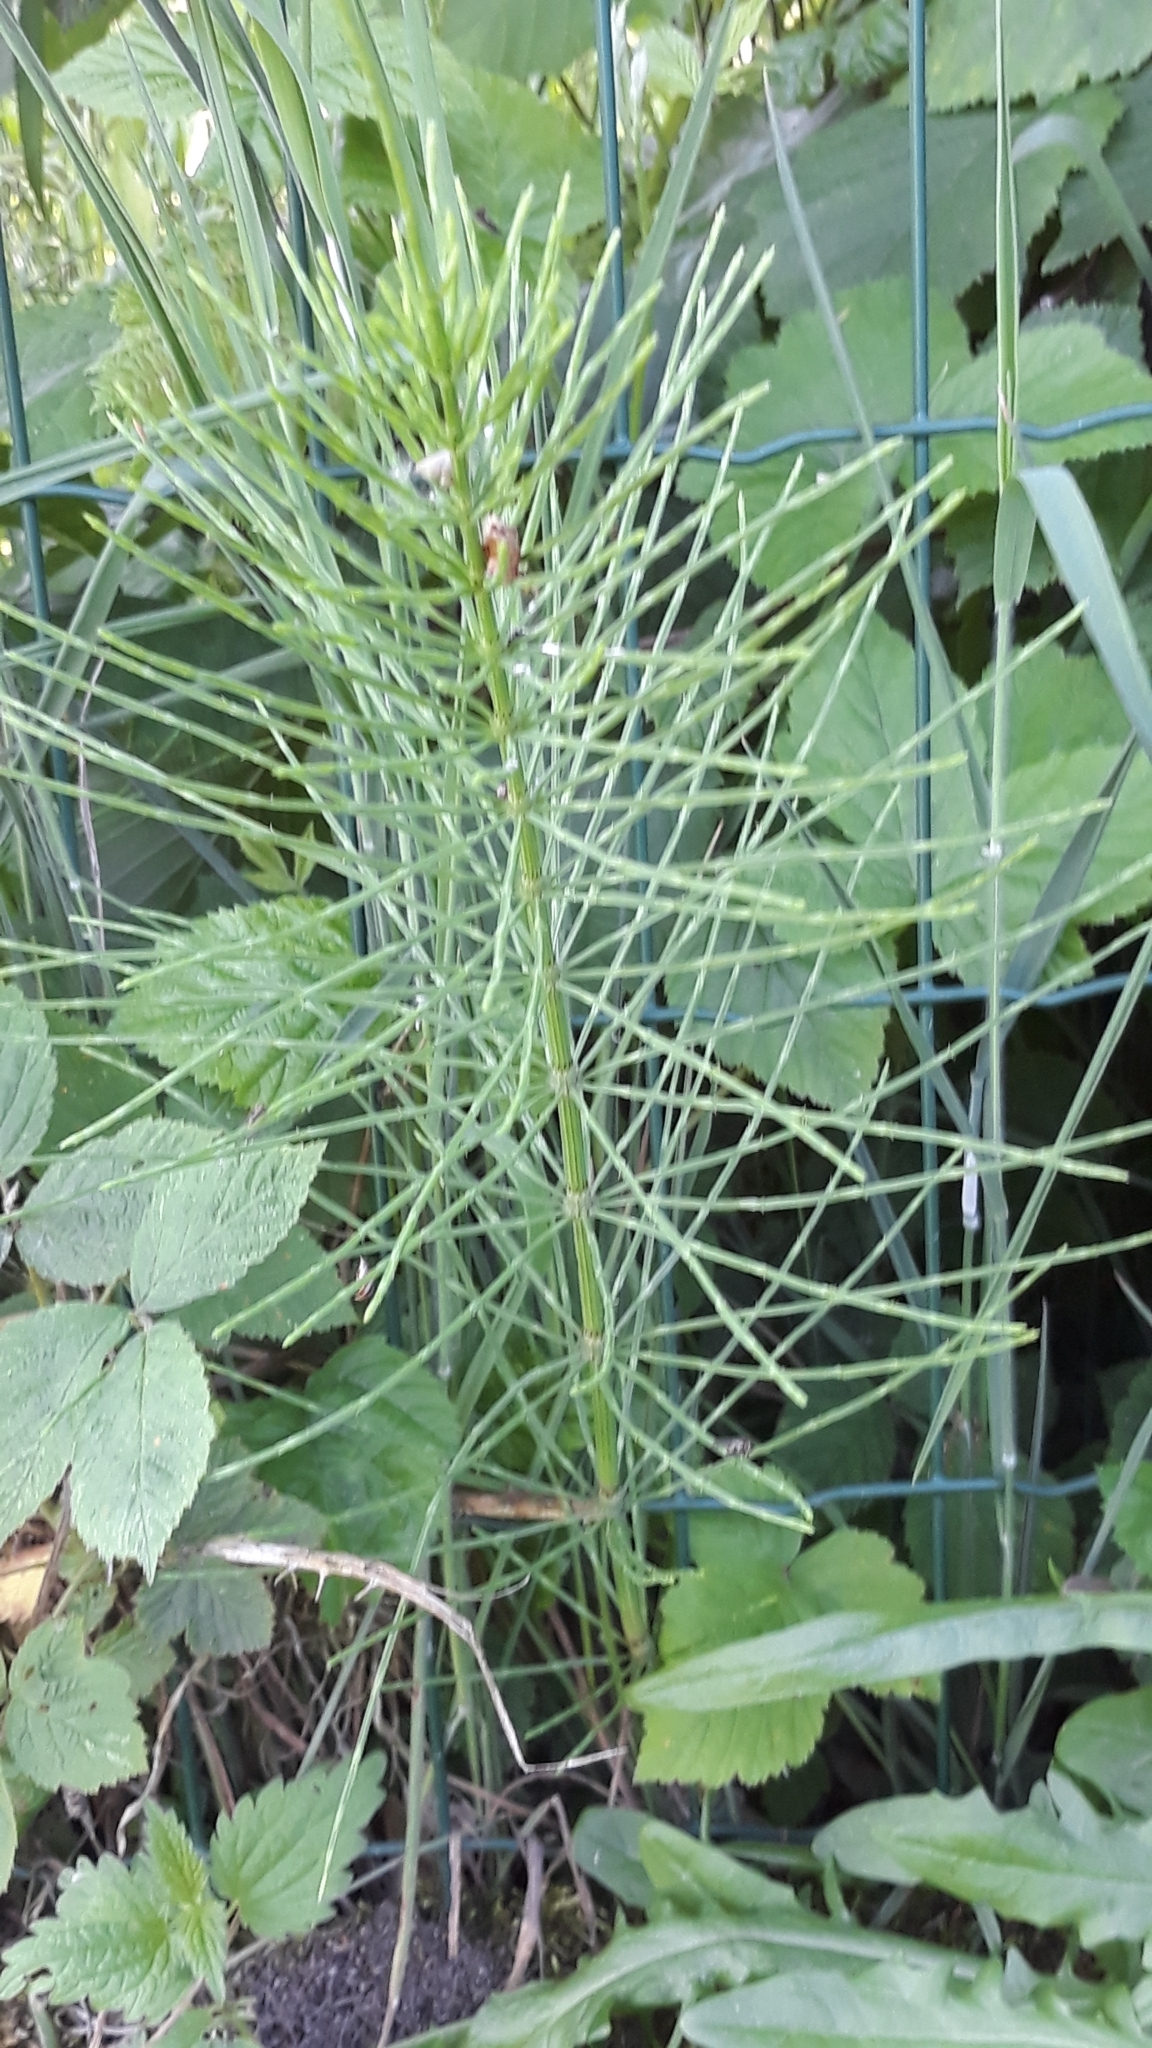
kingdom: Plantae
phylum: Tracheophyta
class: Polypodiopsida
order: Equisetales
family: Equisetaceae
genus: Equisetum
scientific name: Equisetum arvense
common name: Field horsetail
